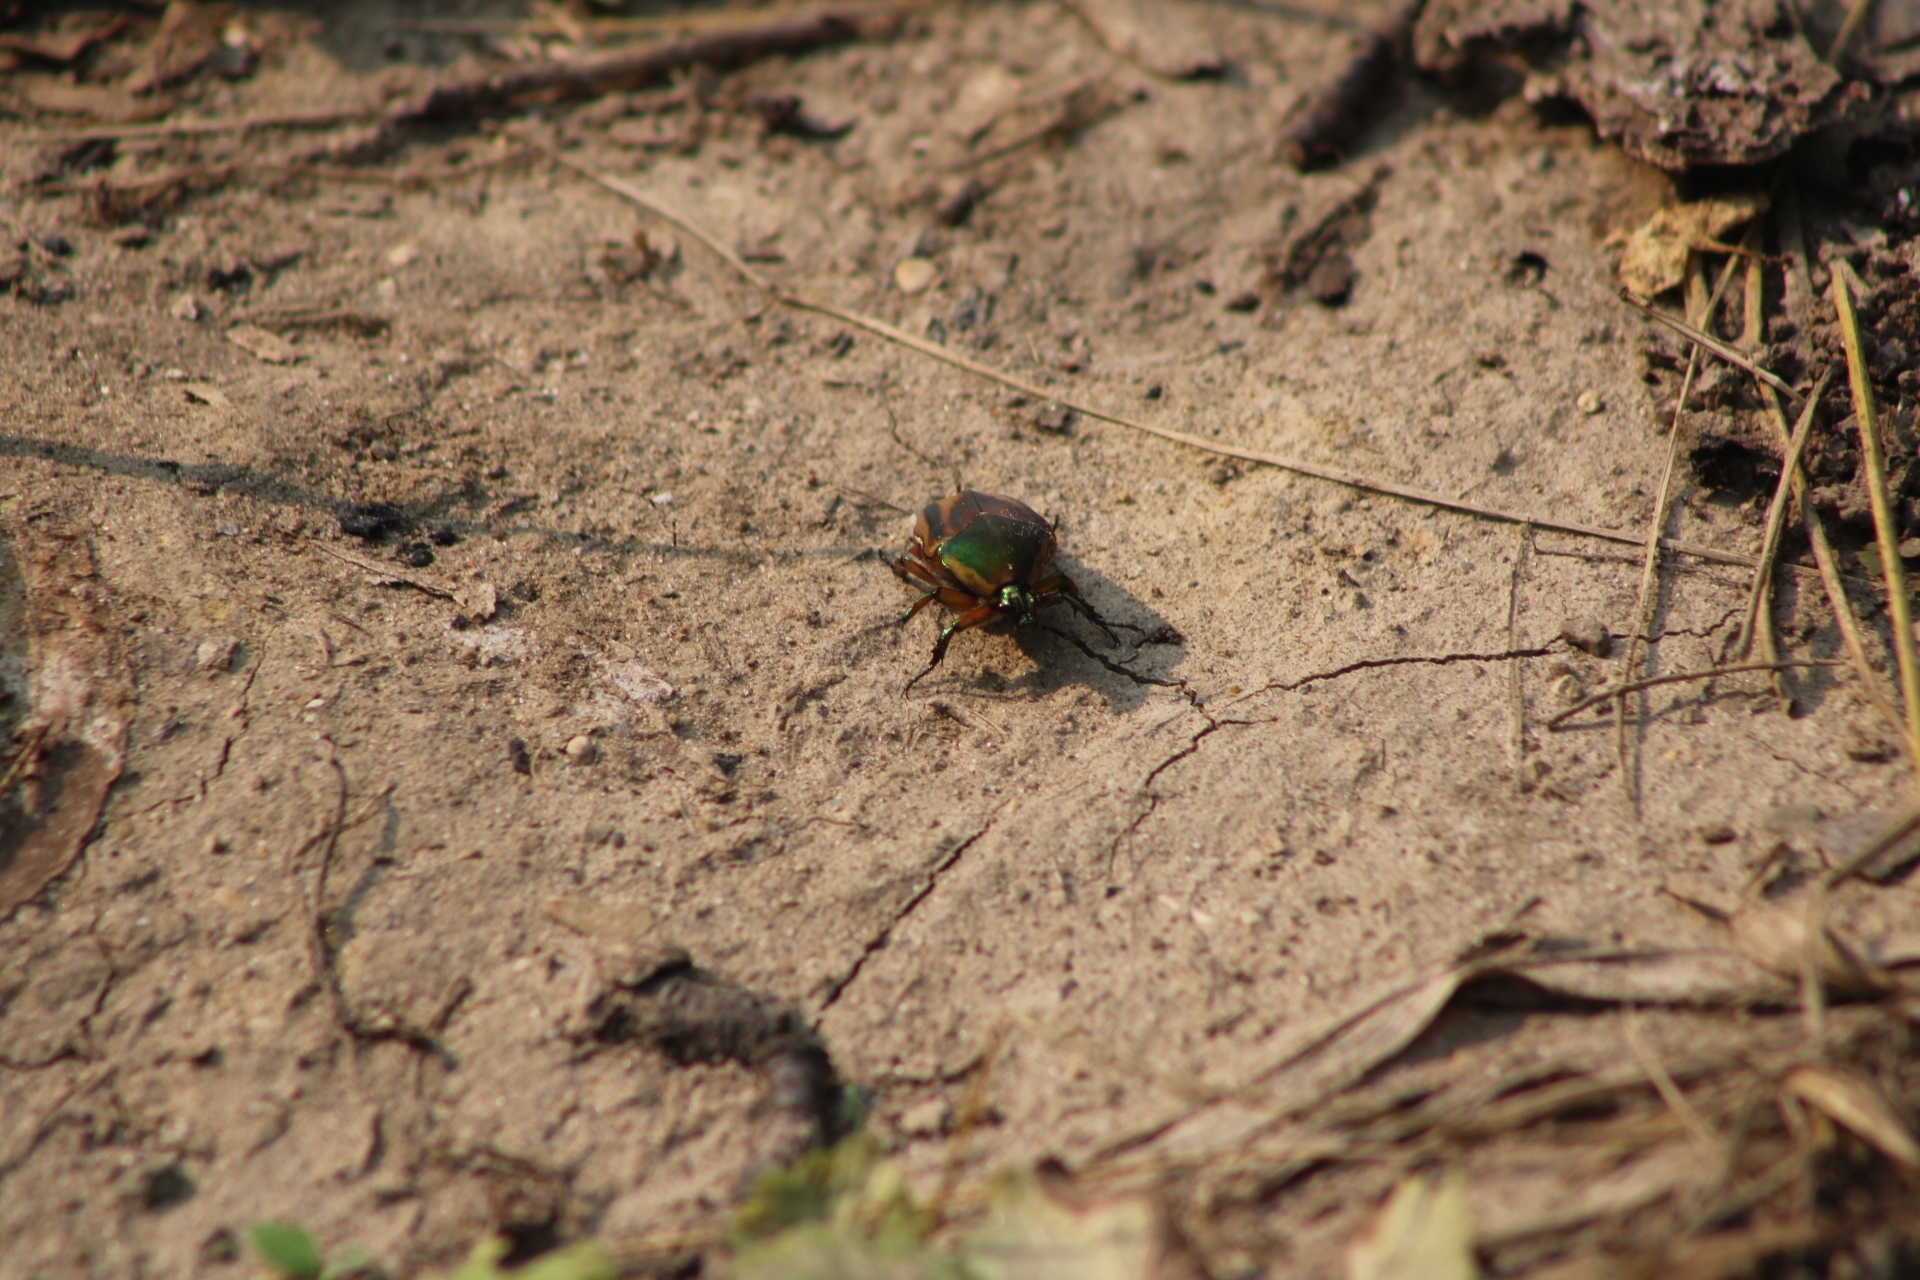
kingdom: Animalia
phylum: Arthropoda
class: Insecta
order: Coleoptera
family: Scarabaeidae
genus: Cotinis
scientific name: Cotinis nitida
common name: Common green june beetle
